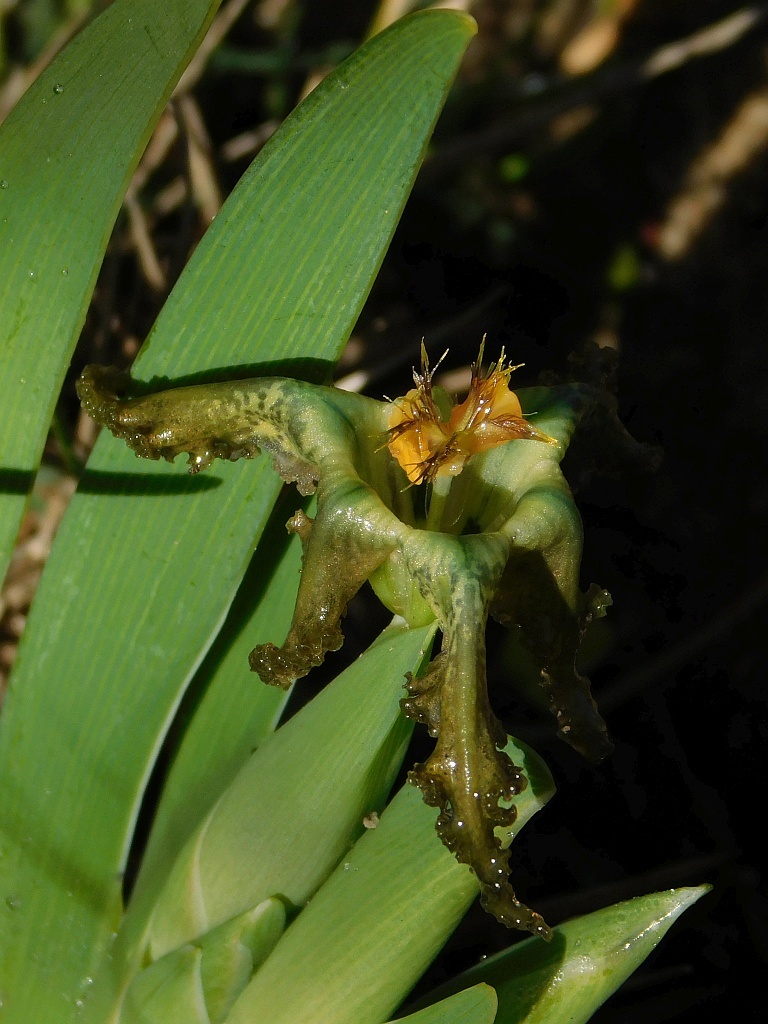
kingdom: Plantae
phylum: Tracheophyta
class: Liliopsida
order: Asparagales
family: Iridaceae
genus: Ferraria
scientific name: Ferraria variabilis
